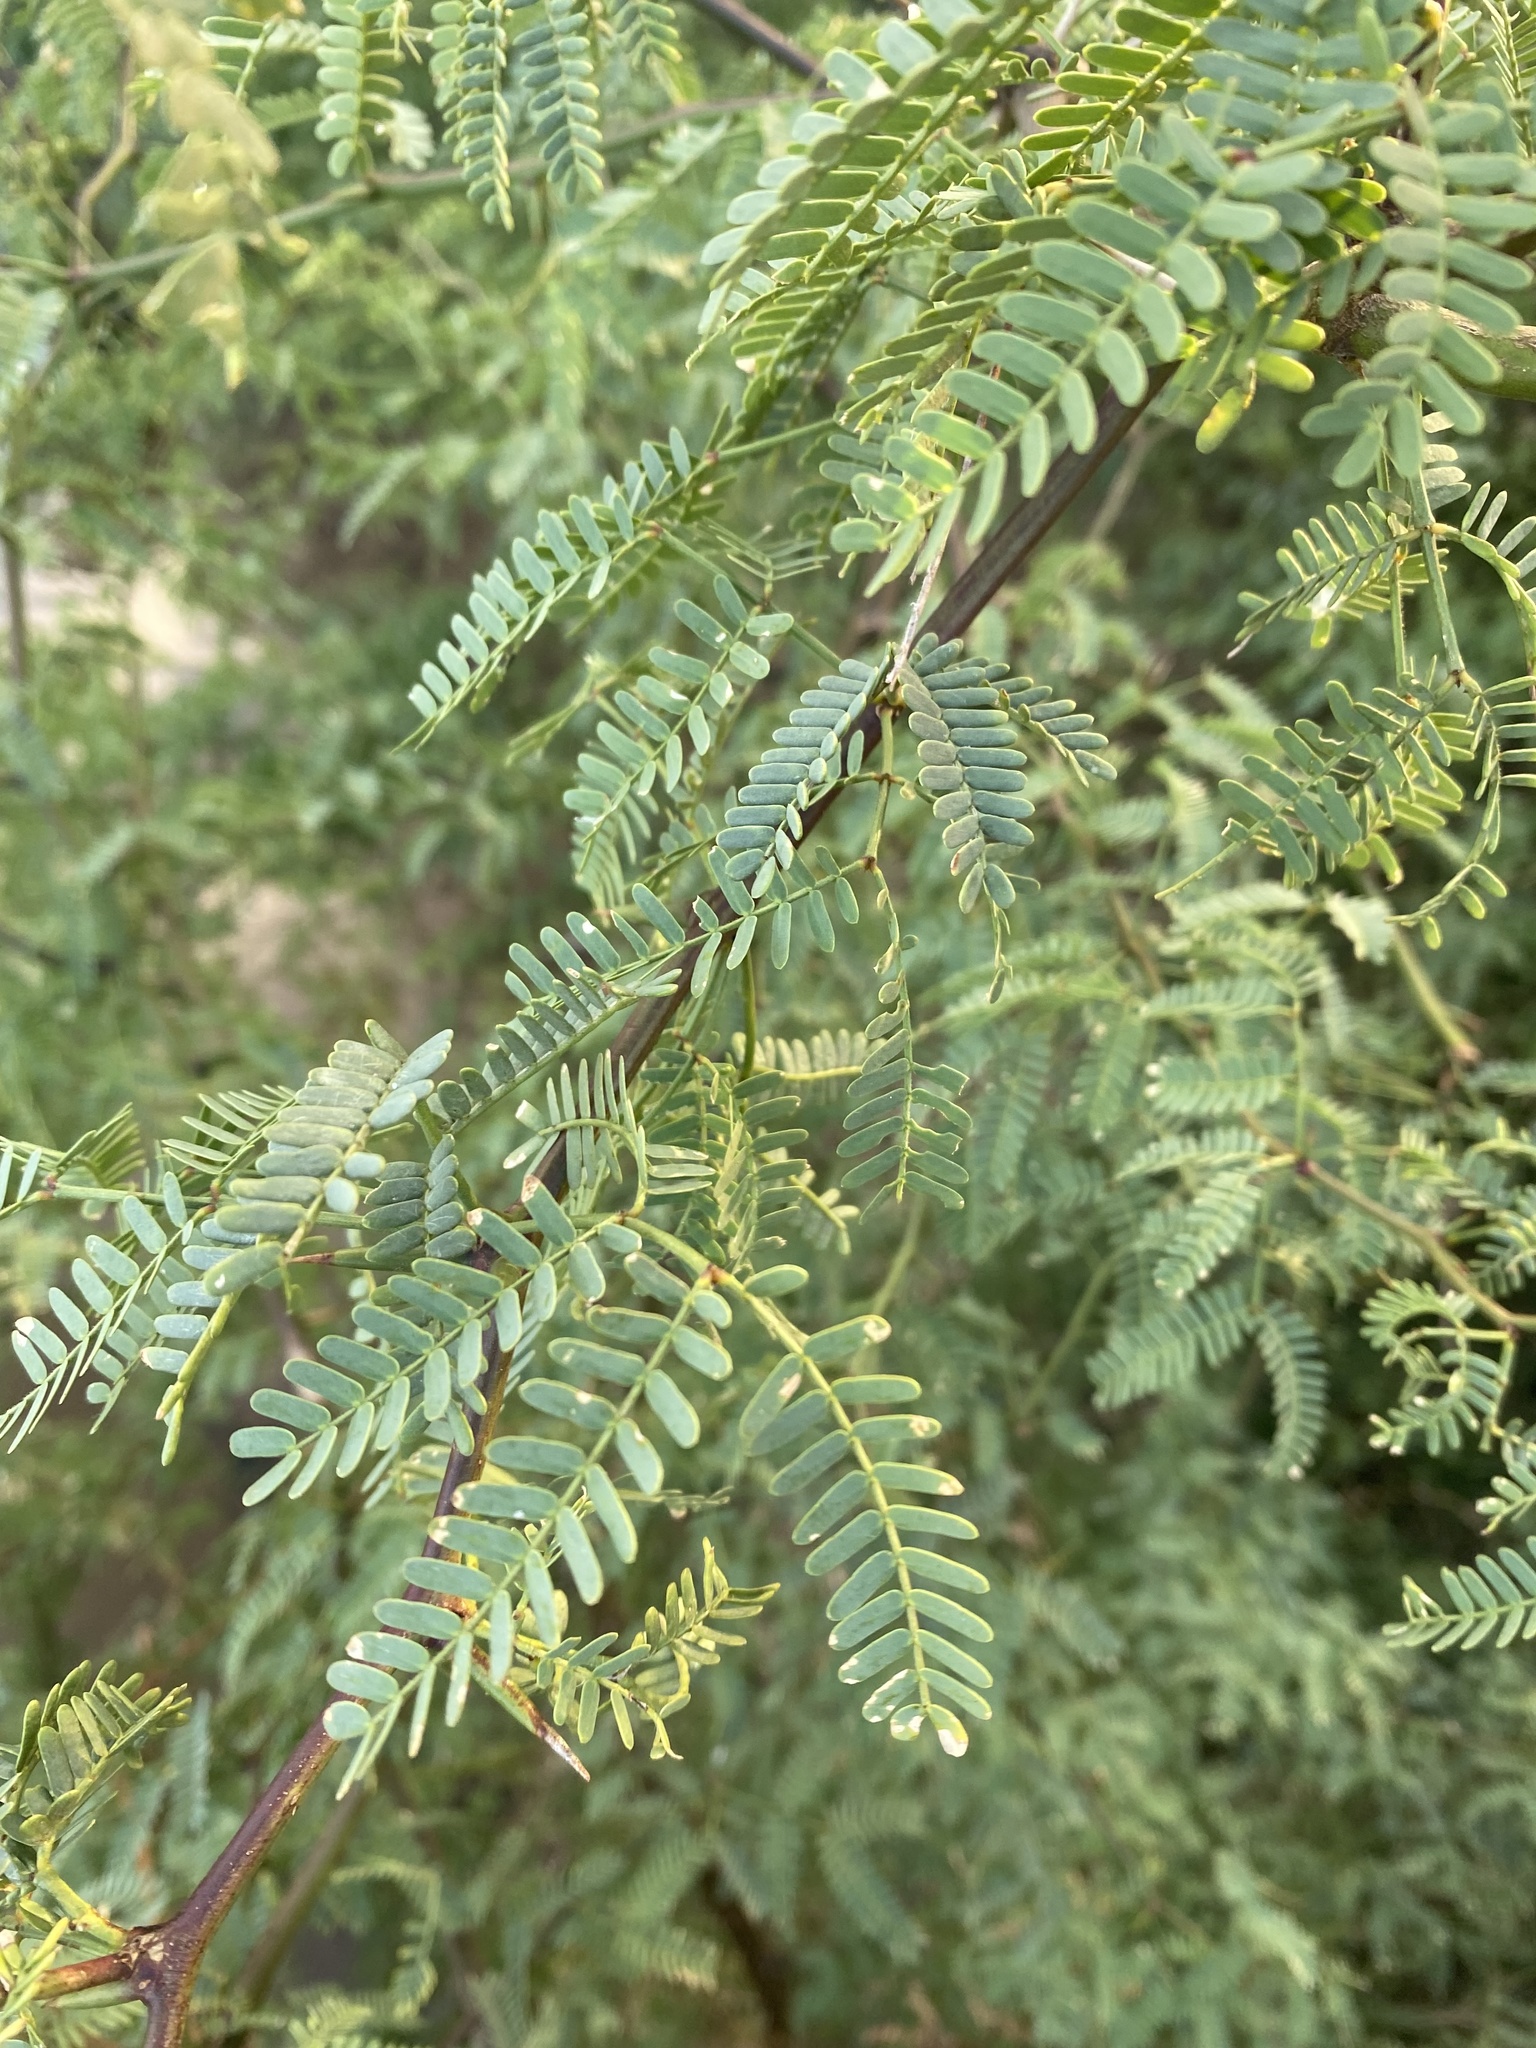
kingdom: Plantae
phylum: Tracheophyta
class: Magnoliopsida
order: Fabales
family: Fabaceae
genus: Prosopis
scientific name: Prosopis pallida
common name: Mesquite
